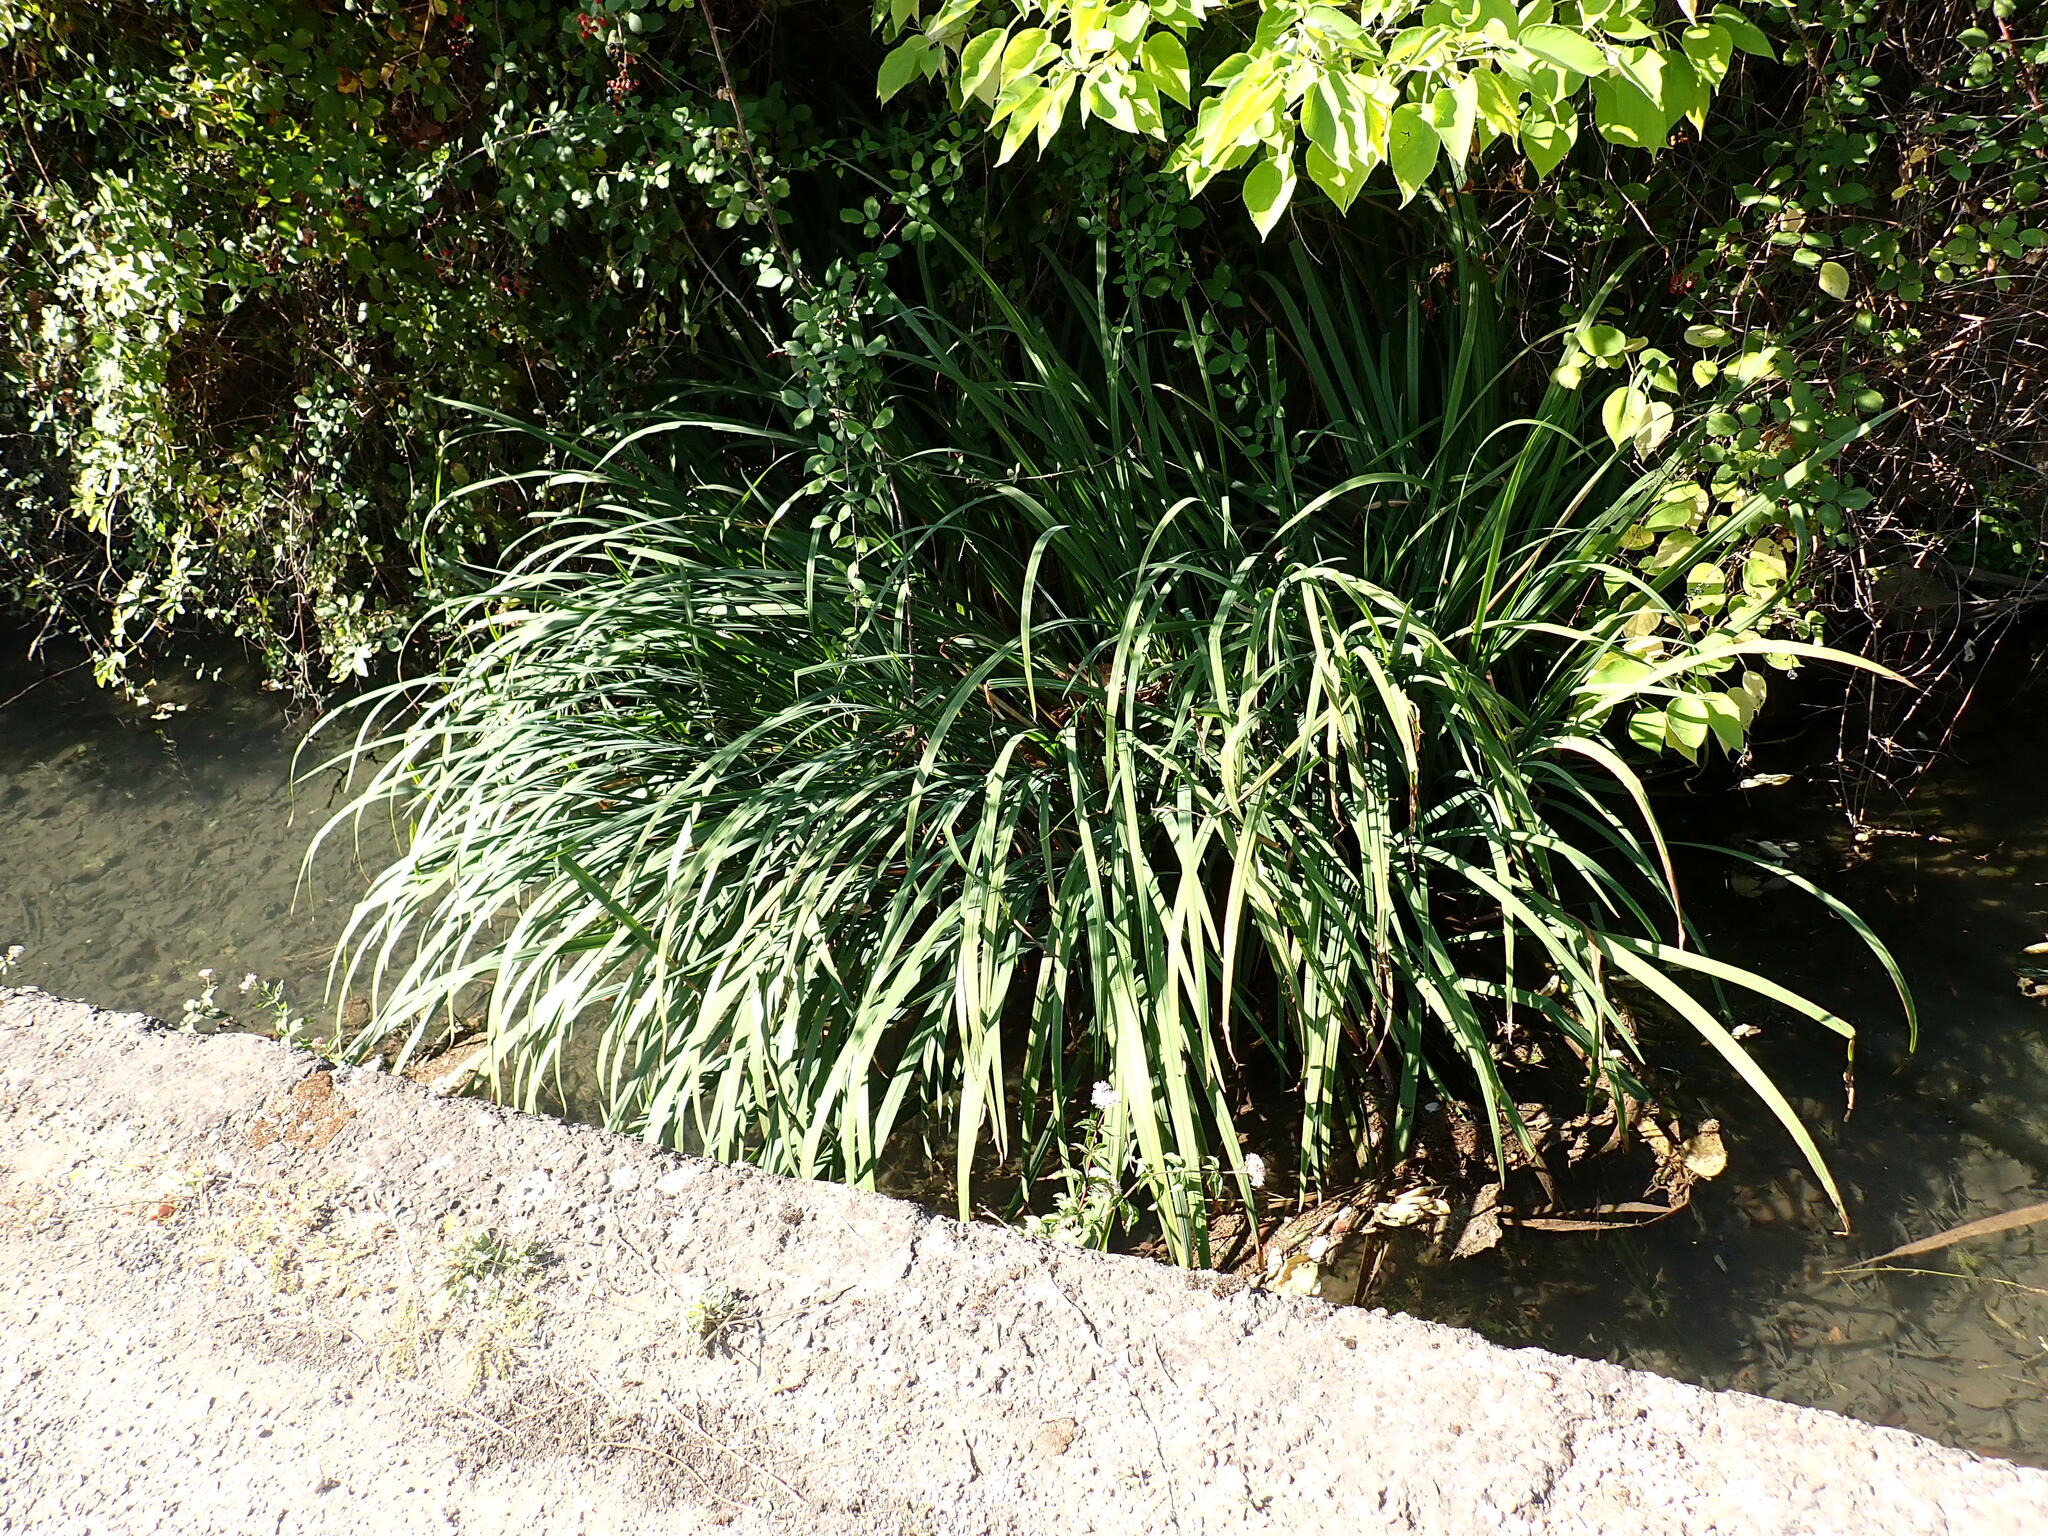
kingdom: Plantae
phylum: Tracheophyta
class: Liliopsida
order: Asparagales
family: Iridaceae
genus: Iris
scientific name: Iris pseudacorus
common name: Yellow flag
